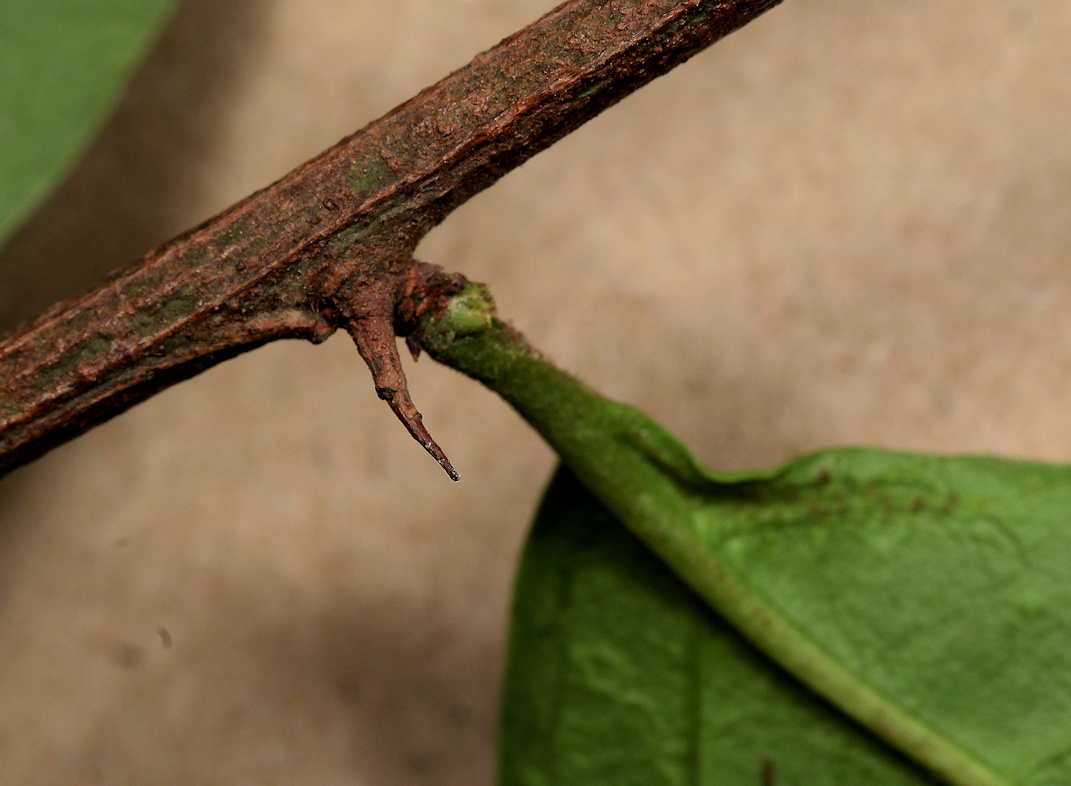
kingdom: Plantae
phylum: Tracheophyta
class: Magnoliopsida
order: Santalales
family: Ximeniaceae
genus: Ximenia
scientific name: Ximenia caffra
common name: Large sourplum
